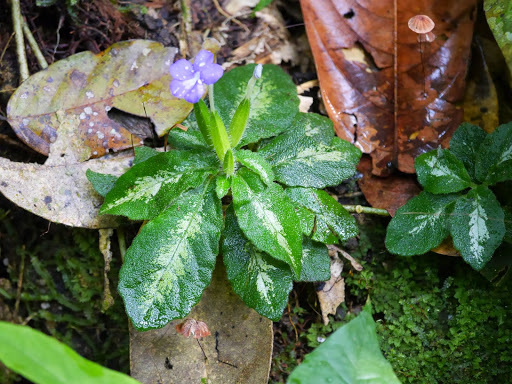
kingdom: Plantae
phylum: Tracheophyta
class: Magnoliopsida
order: Lamiales
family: Acanthaceae
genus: Physacanthus
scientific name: Physacanthus batanganus
